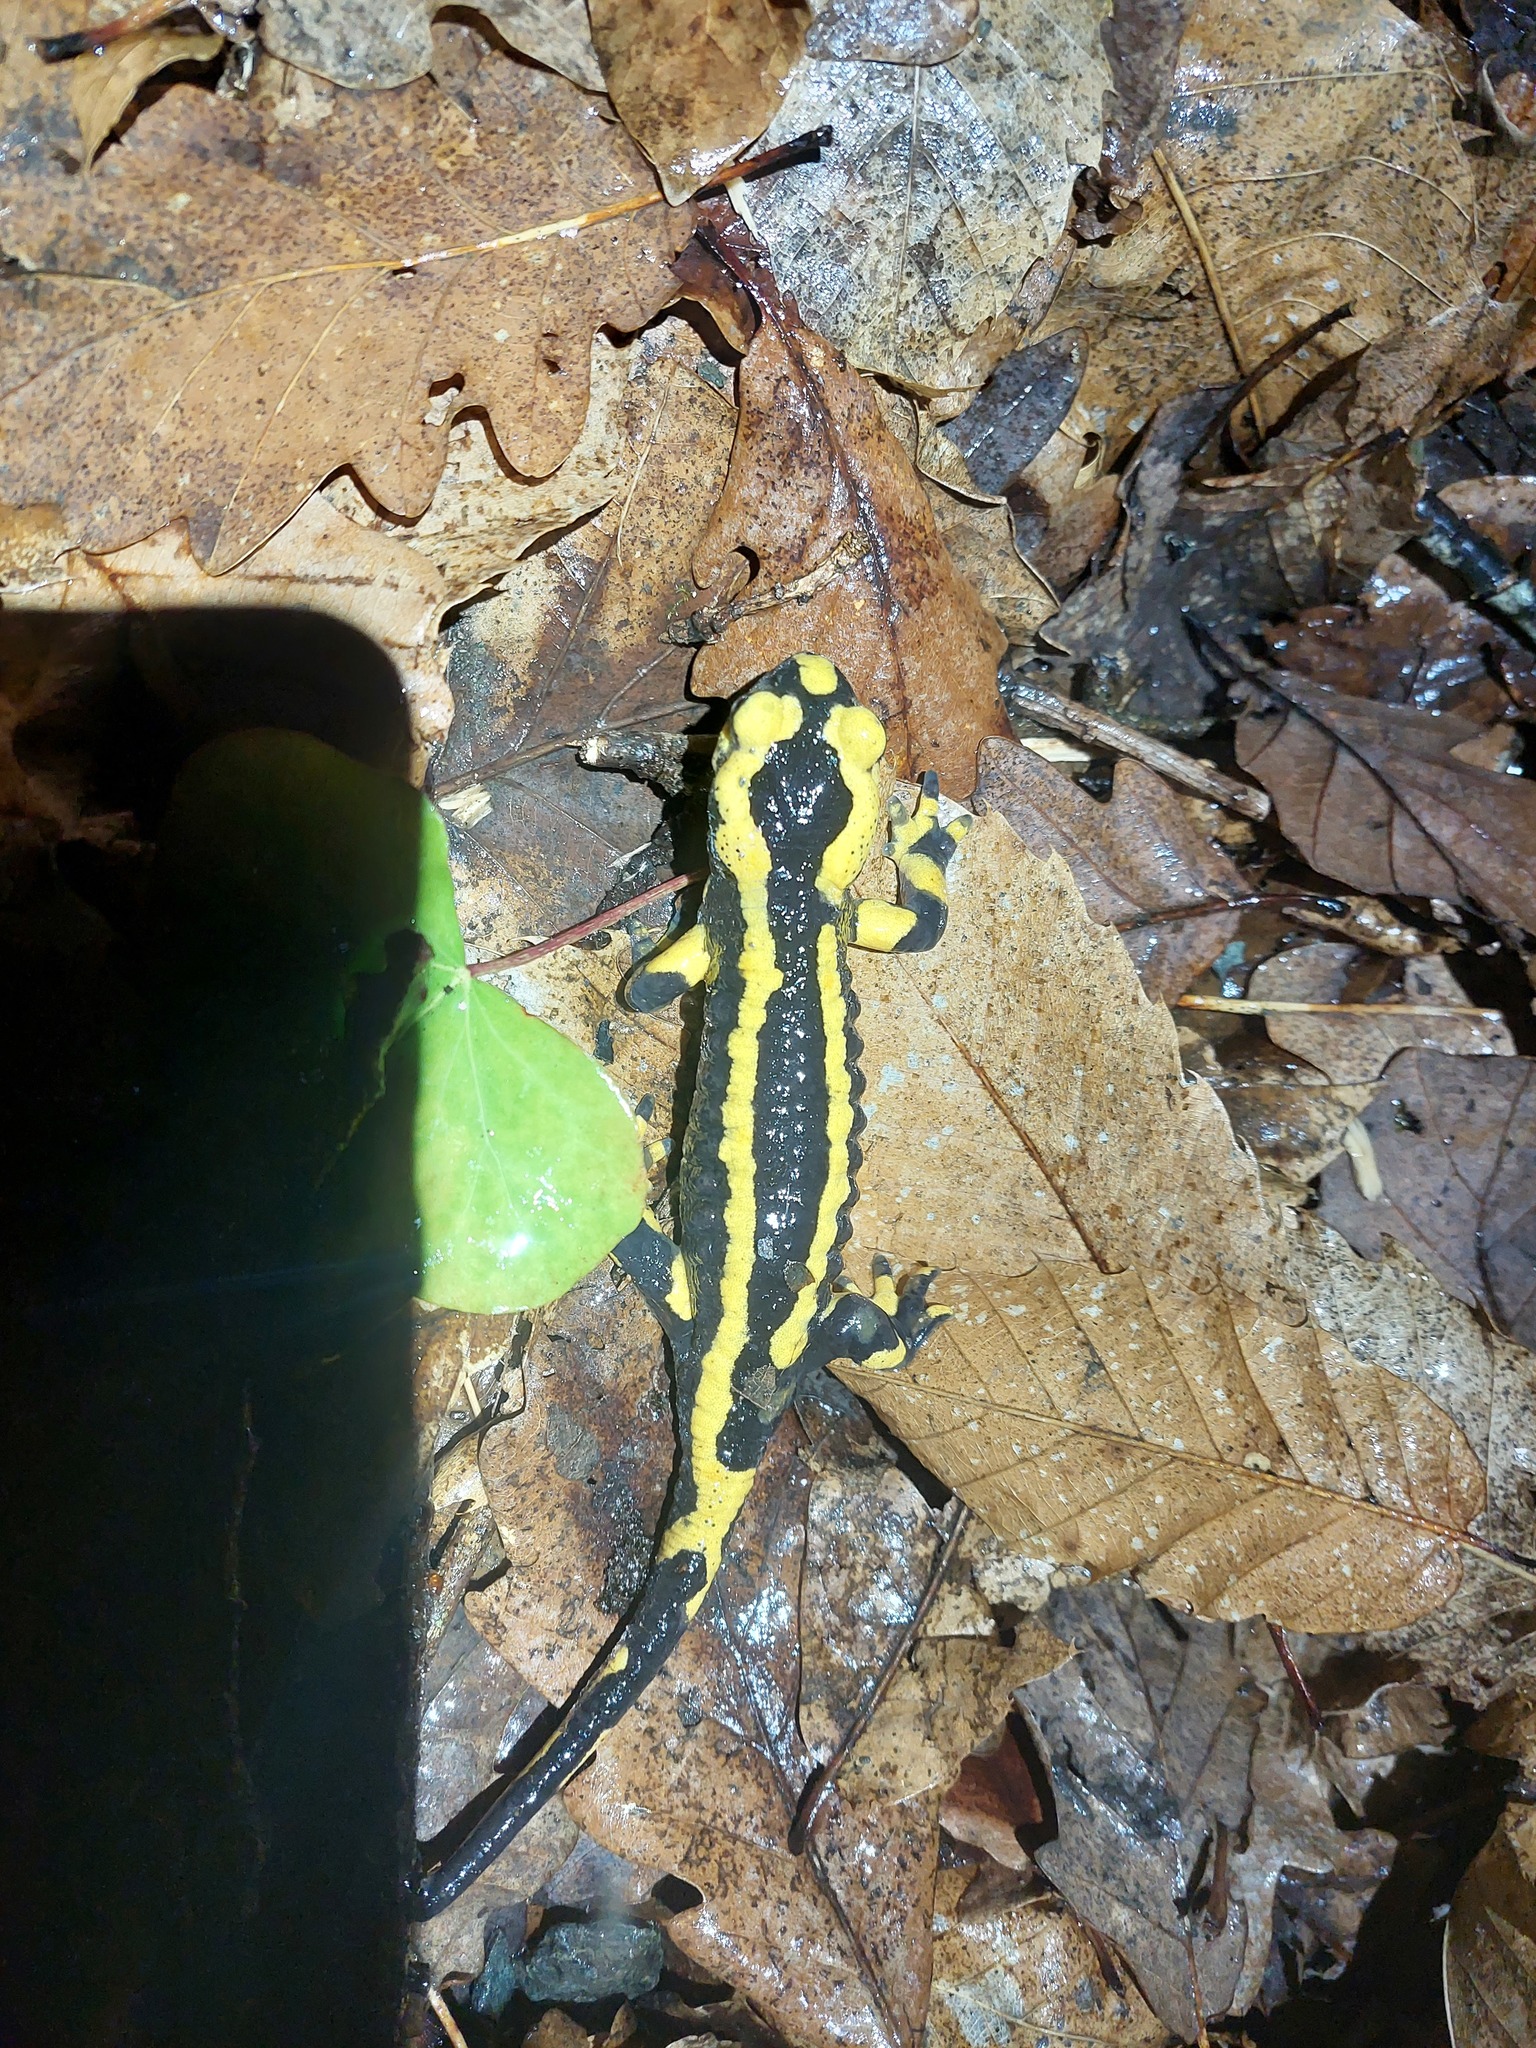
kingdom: Animalia
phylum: Chordata
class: Amphibia
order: Caudata
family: Salamandridae
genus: Salamandra
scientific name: Salamandra salamandra
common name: Fire salamander
